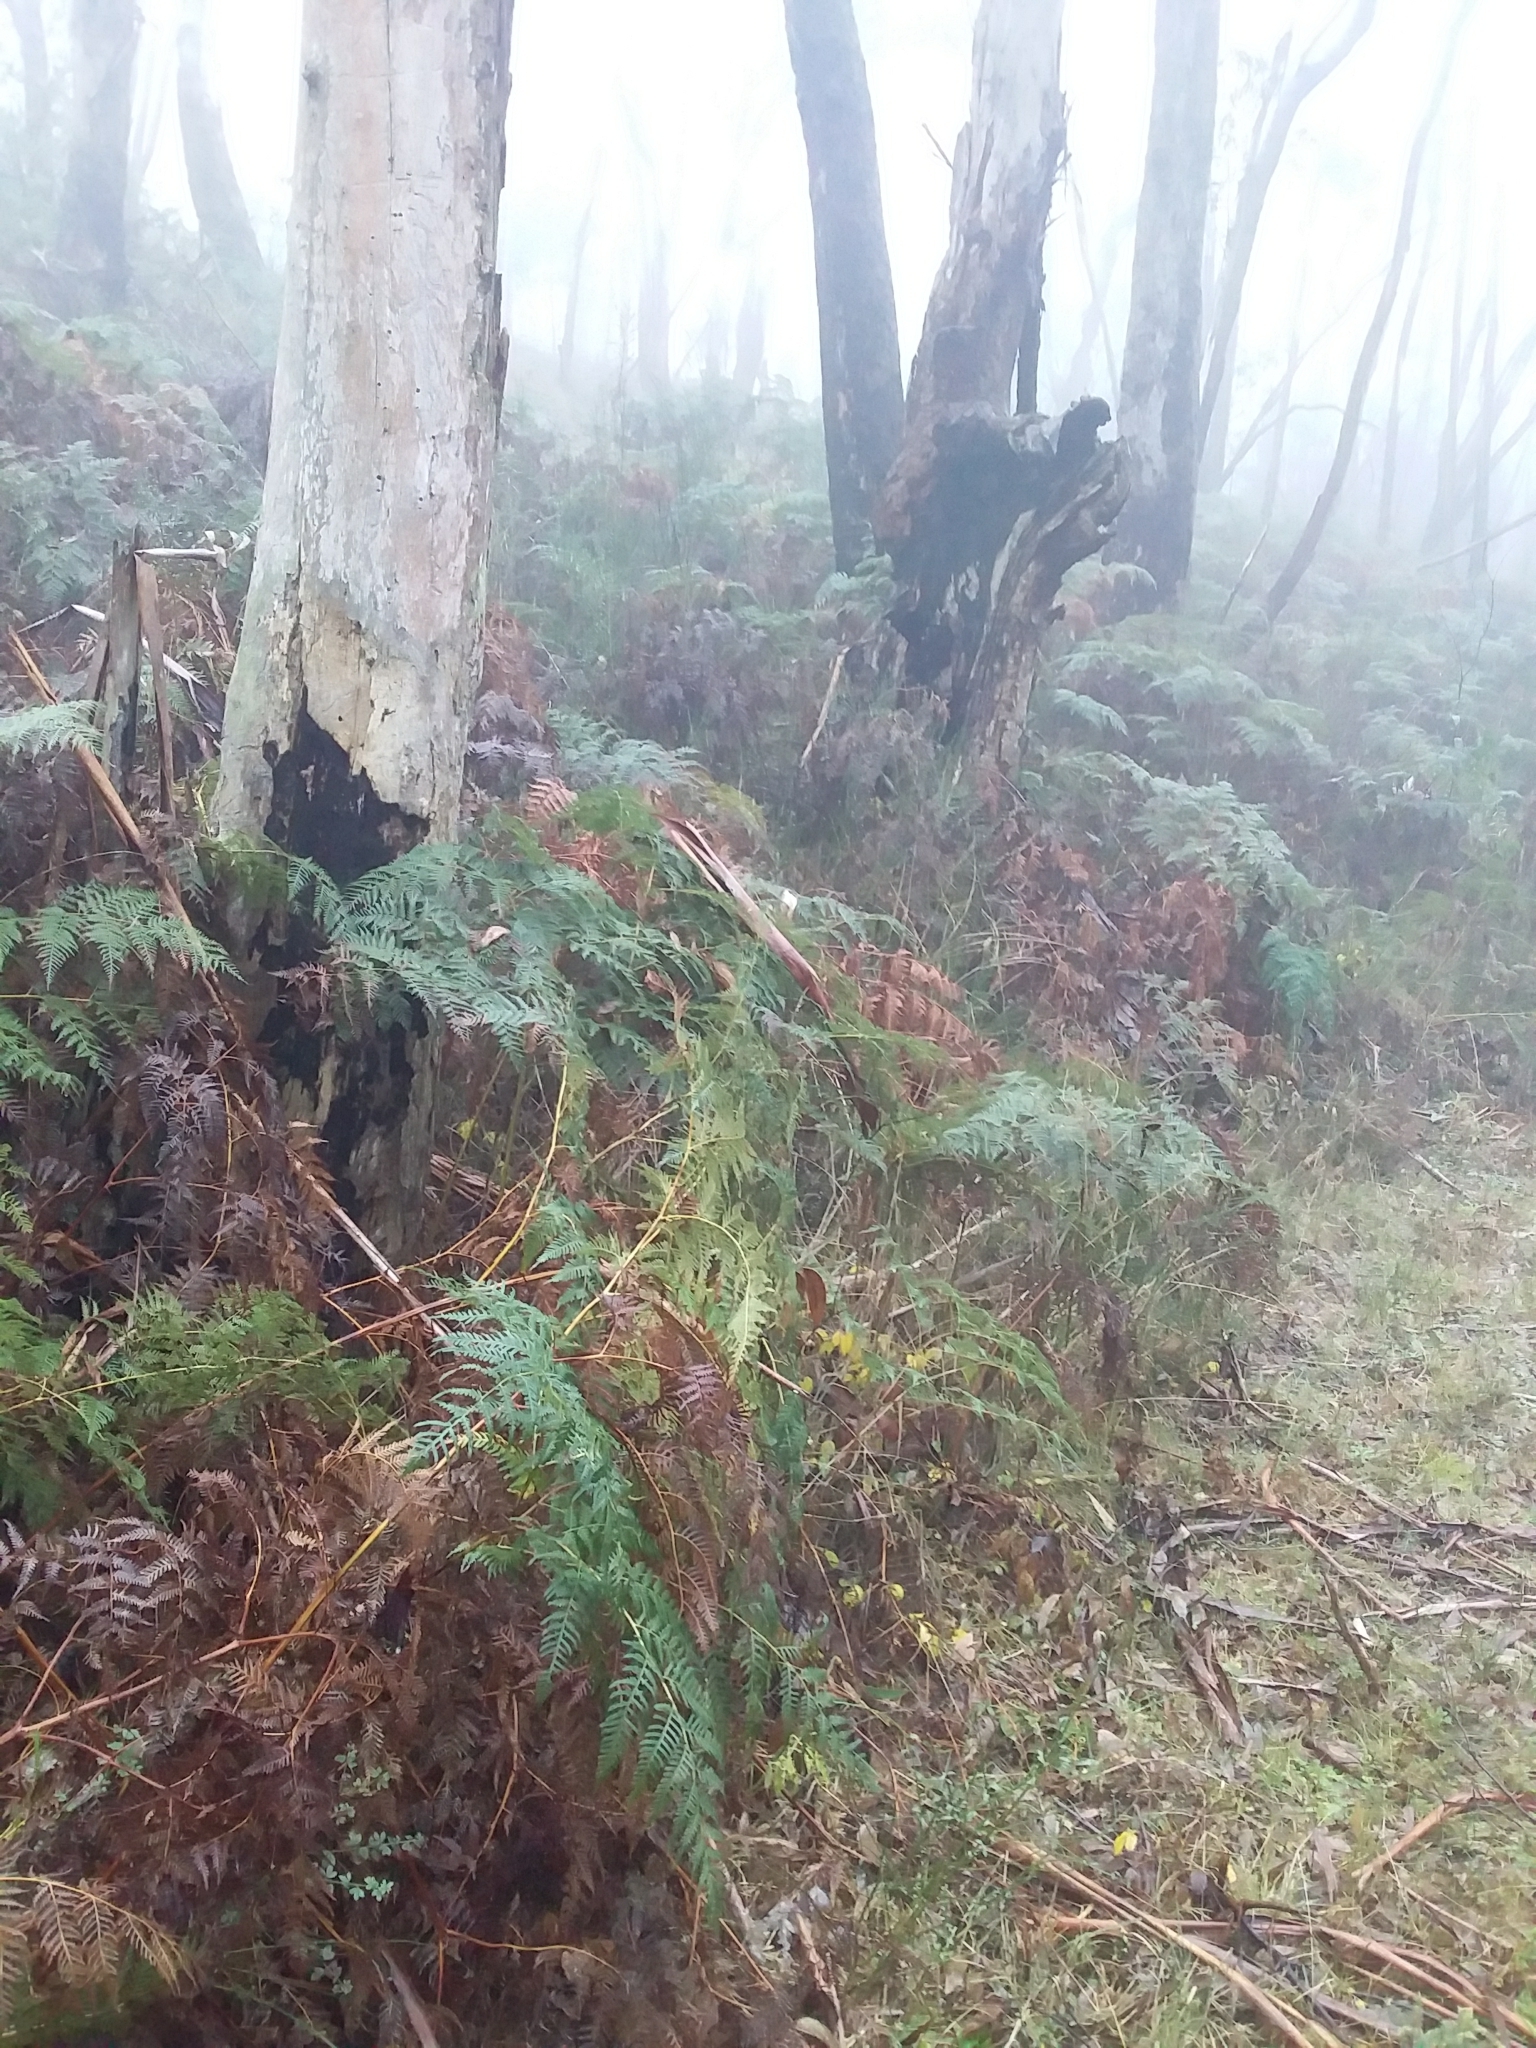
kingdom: Plantae
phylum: Tracheophyta
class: Polypodiopsida
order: Polypodiales
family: Dennstaedtiaceae
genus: Pteridium
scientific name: Pteridium esculentum
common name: Bracken fern
